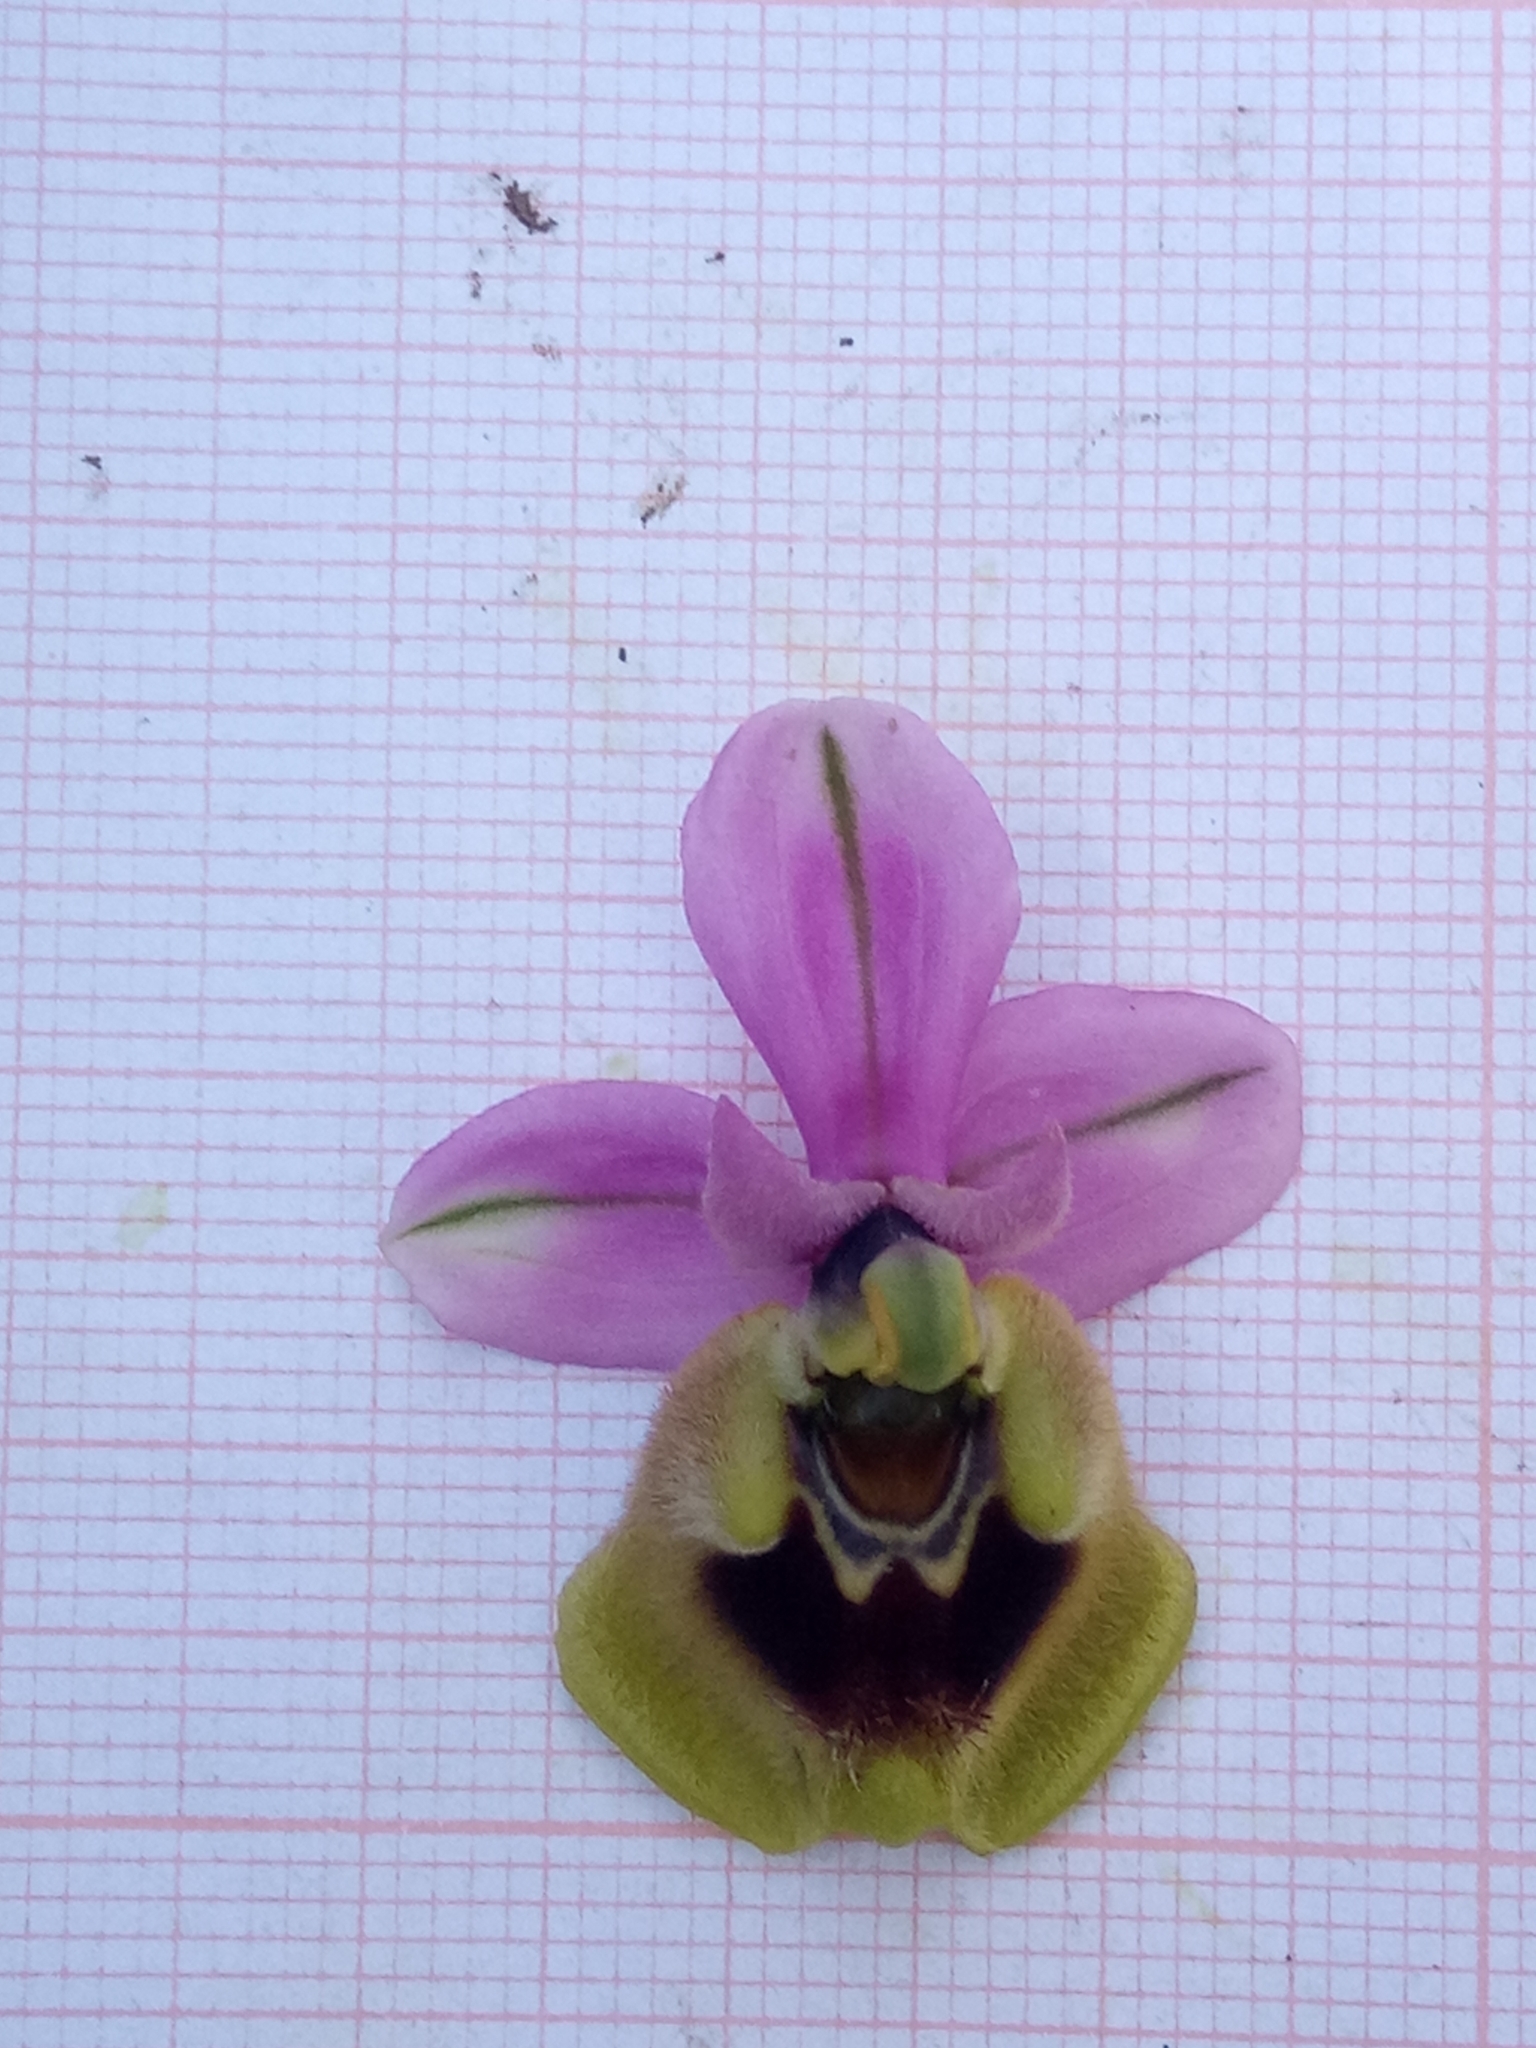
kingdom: Plantae
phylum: Tracheophyta
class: Liliopsida
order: Asparagales
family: Orchidaceae
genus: Ophrys
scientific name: Ophrys tenthredinifera
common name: Sawfly orchid
